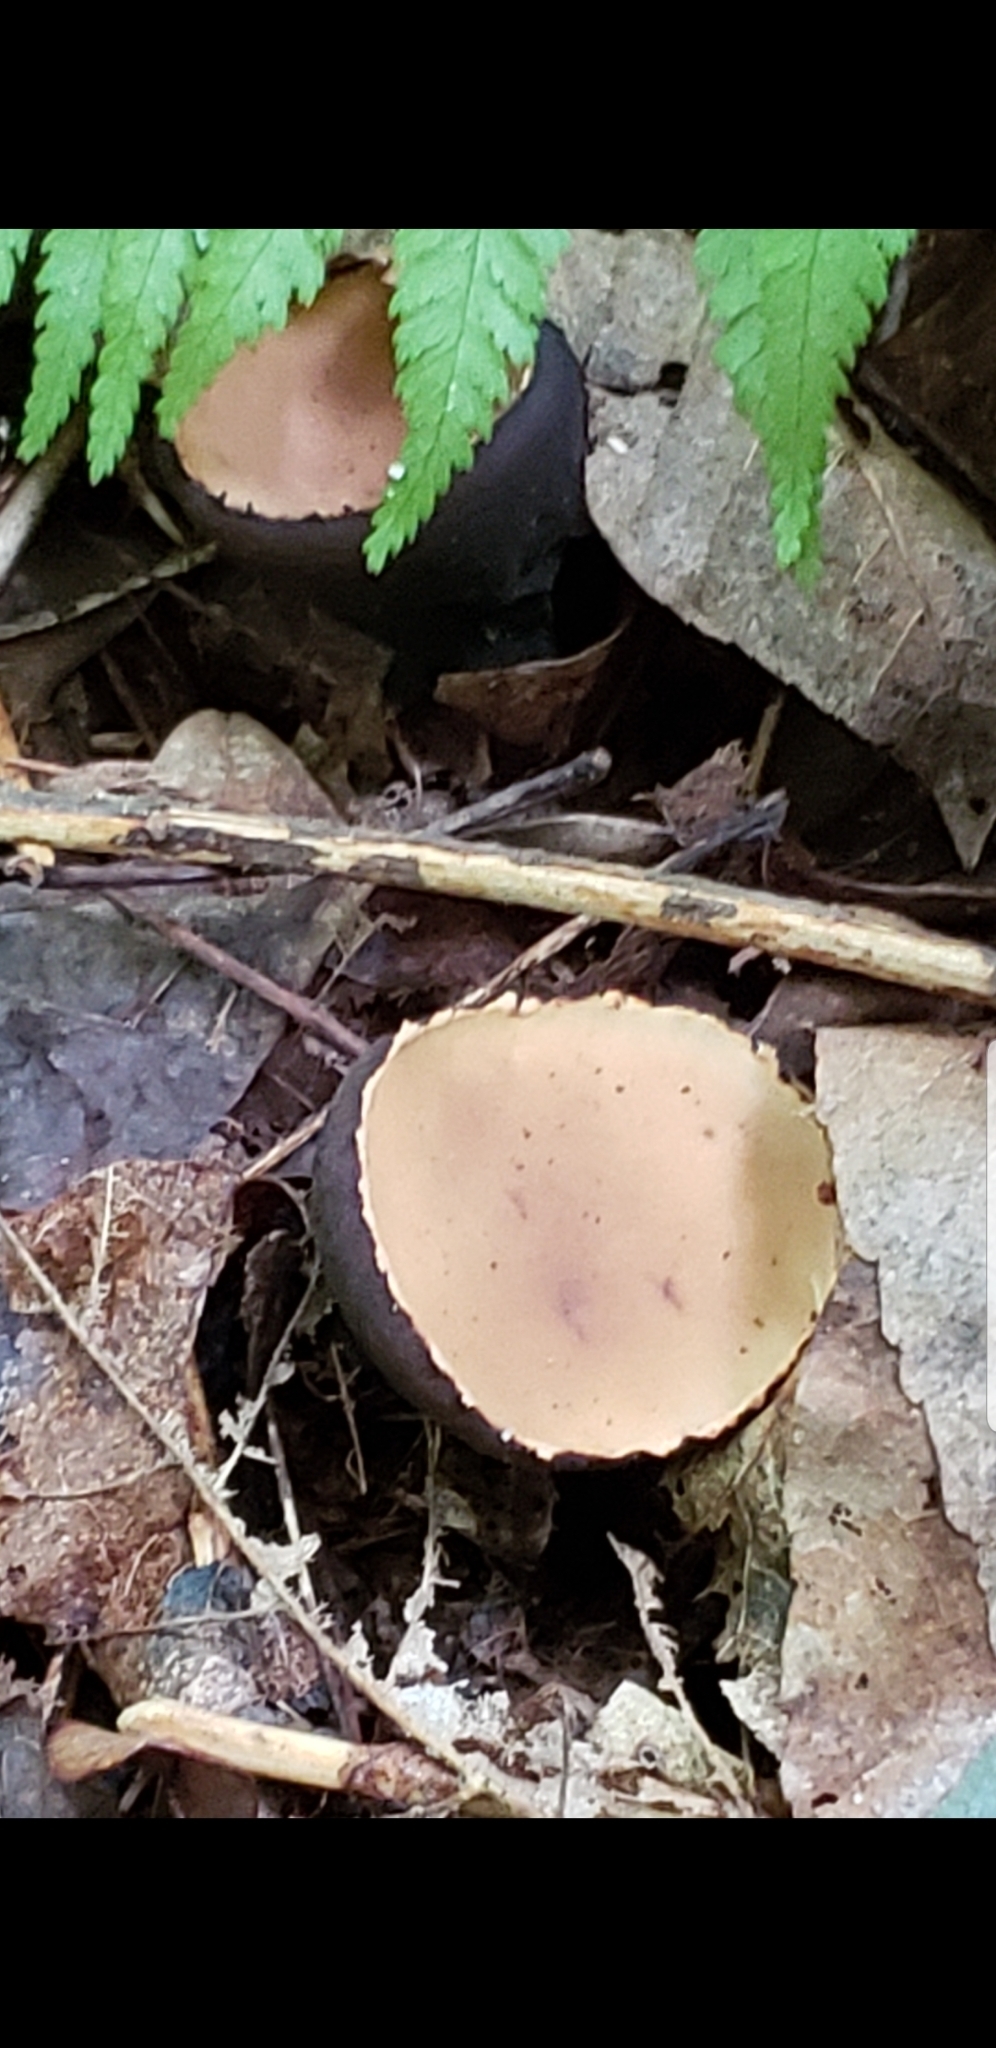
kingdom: Fungi
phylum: Ascomycota
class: Pezizomycetes
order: Pezizales
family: Sarcosomataceae
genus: Galiella
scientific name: Galiella rufa
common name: Hairy rubber cup
